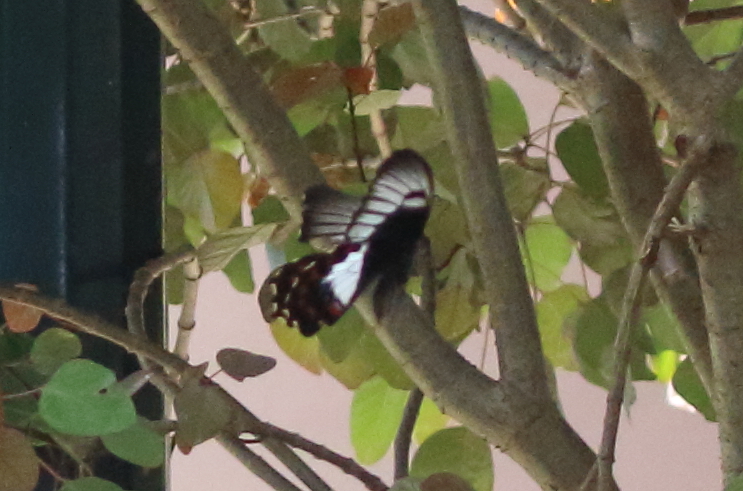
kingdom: Animalia
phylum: Arthropoda
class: Insecta
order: Lepidoptera
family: Papilionidae
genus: Papilio
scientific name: Papilio aegeus
